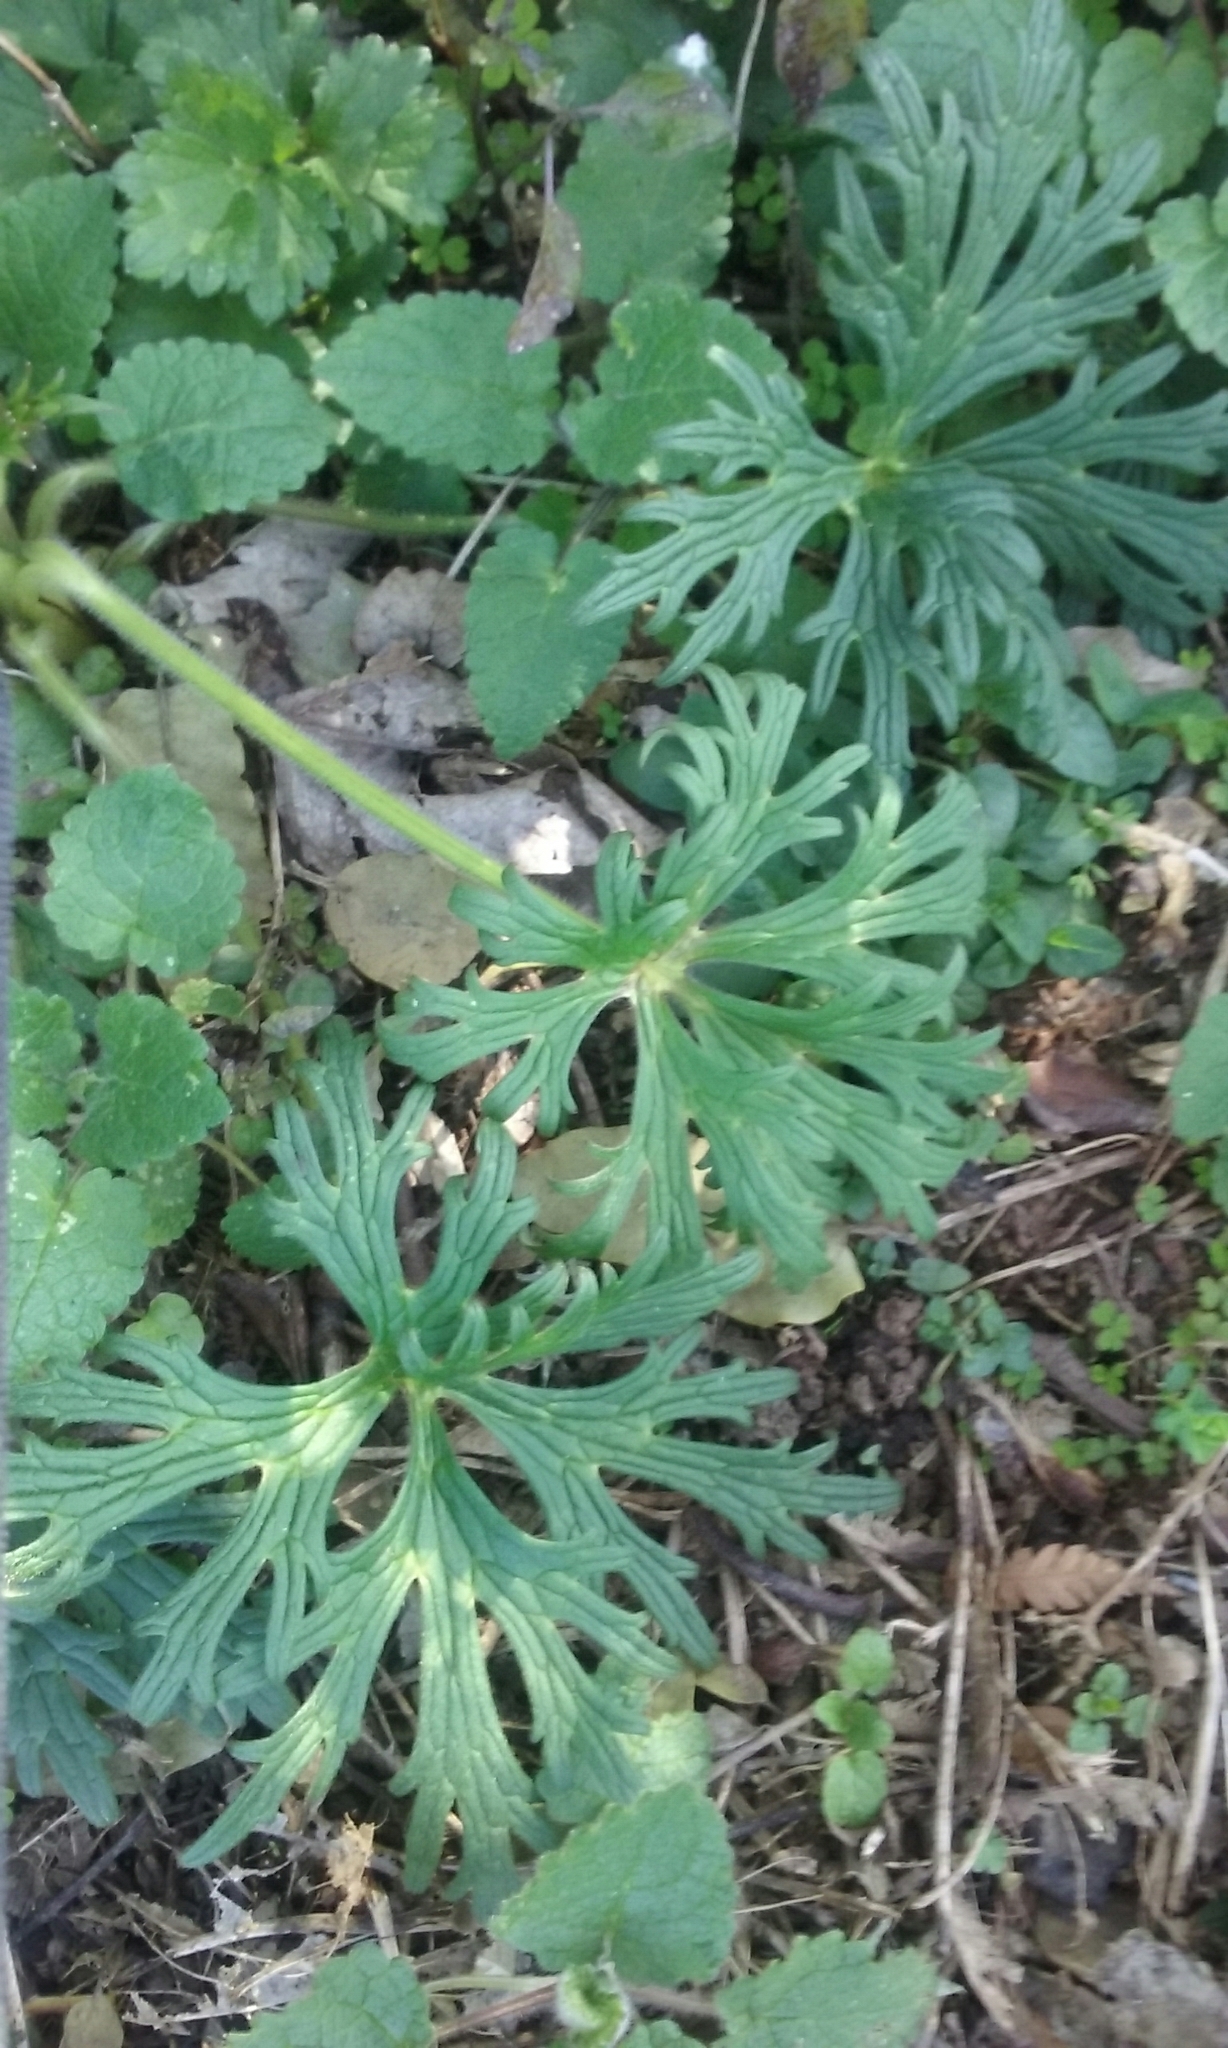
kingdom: Plantae
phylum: Tracheophyta
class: Magnoliopsida
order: Ranunculales
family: Ranunculaceae
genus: Ranunculus
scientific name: Ranunculus acris
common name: Meadow buttercup
